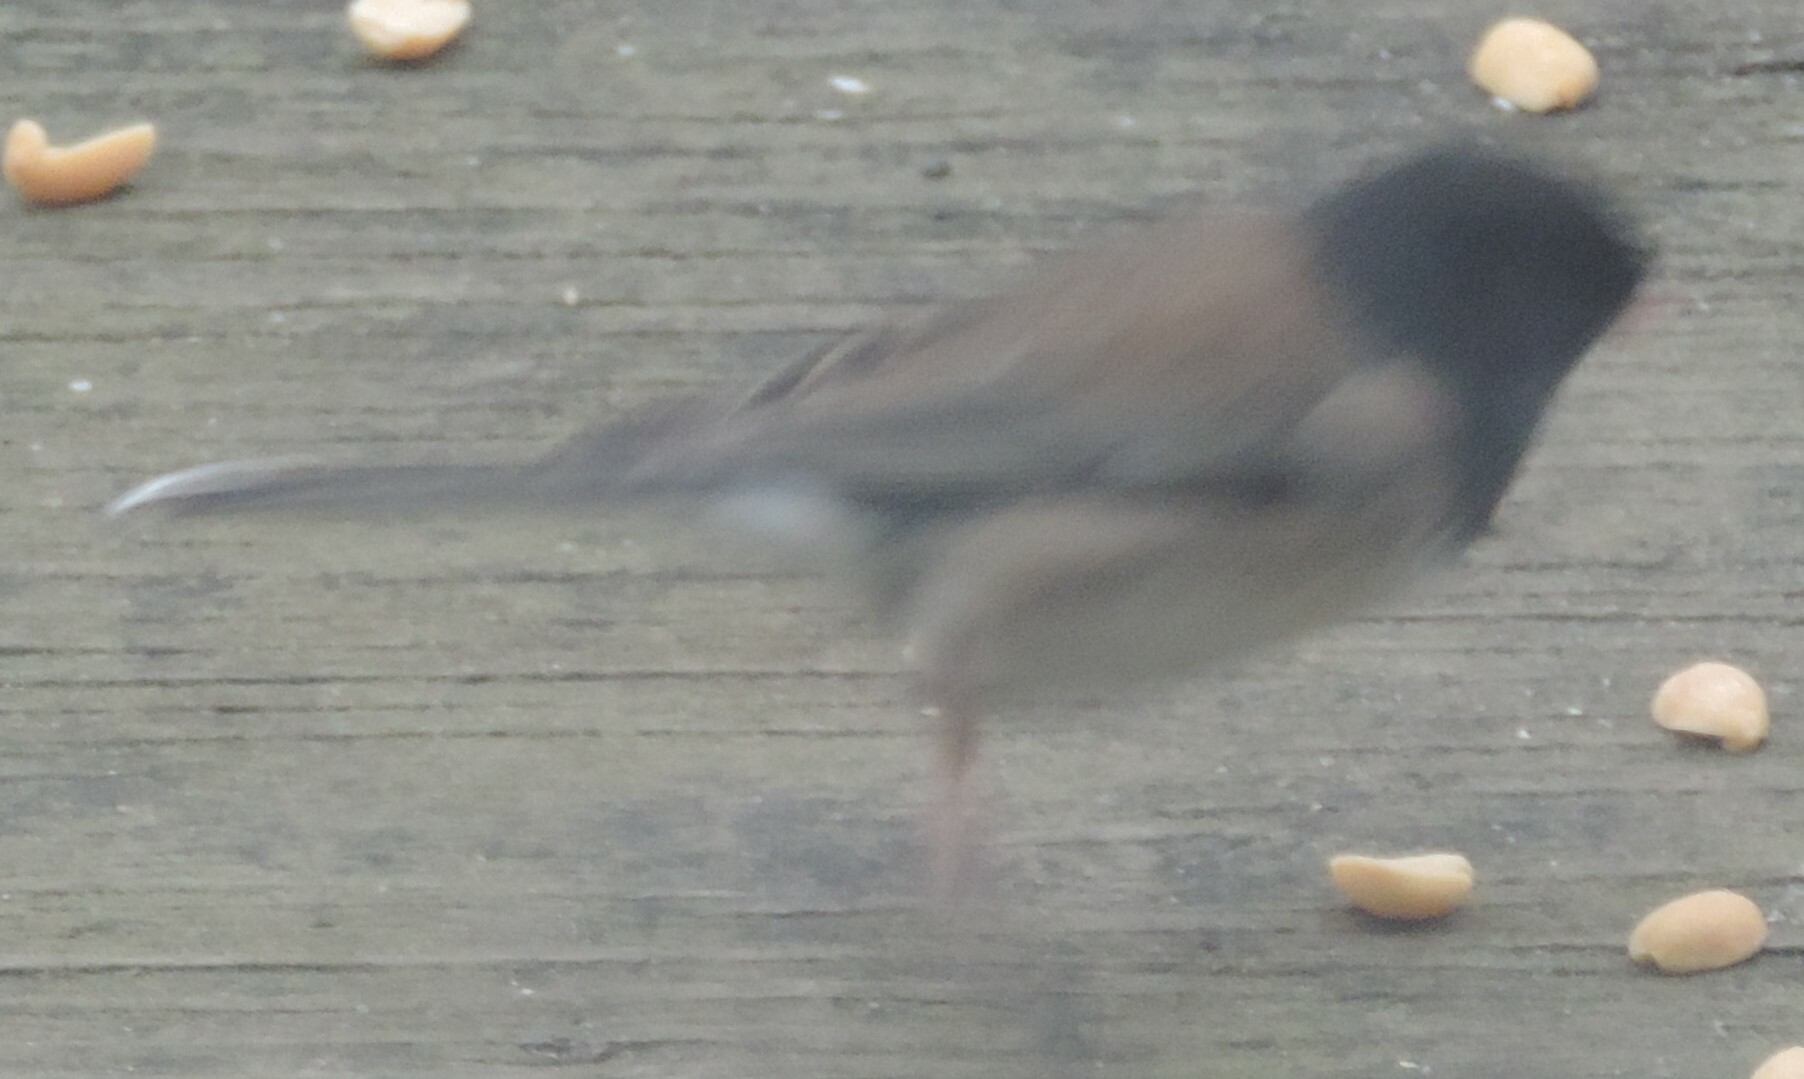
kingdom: Animalia
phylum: Chordata
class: Aves
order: Passeriformes
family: Passerellidae
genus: Junco
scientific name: Junco hyemalis
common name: Dark-eyed junco
